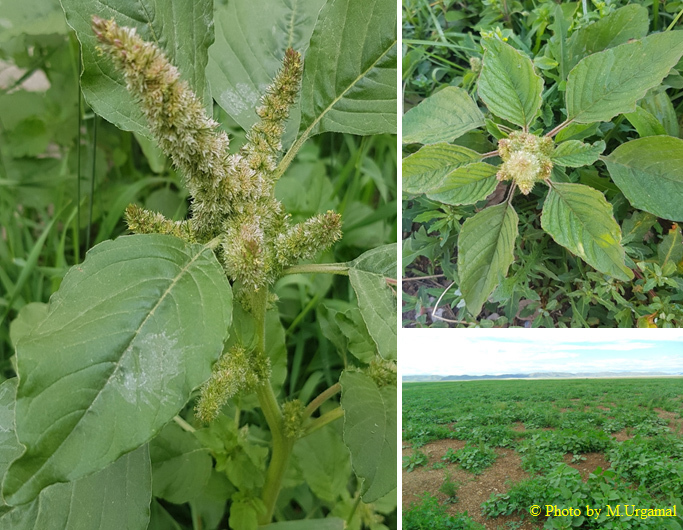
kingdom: Plantae
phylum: Tracheophyta
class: Magnoliopsida
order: Caryophyllales
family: Amaranthaceae
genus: Amaranthus
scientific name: Amaranthus retroflexus
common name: Redroot amaranth
